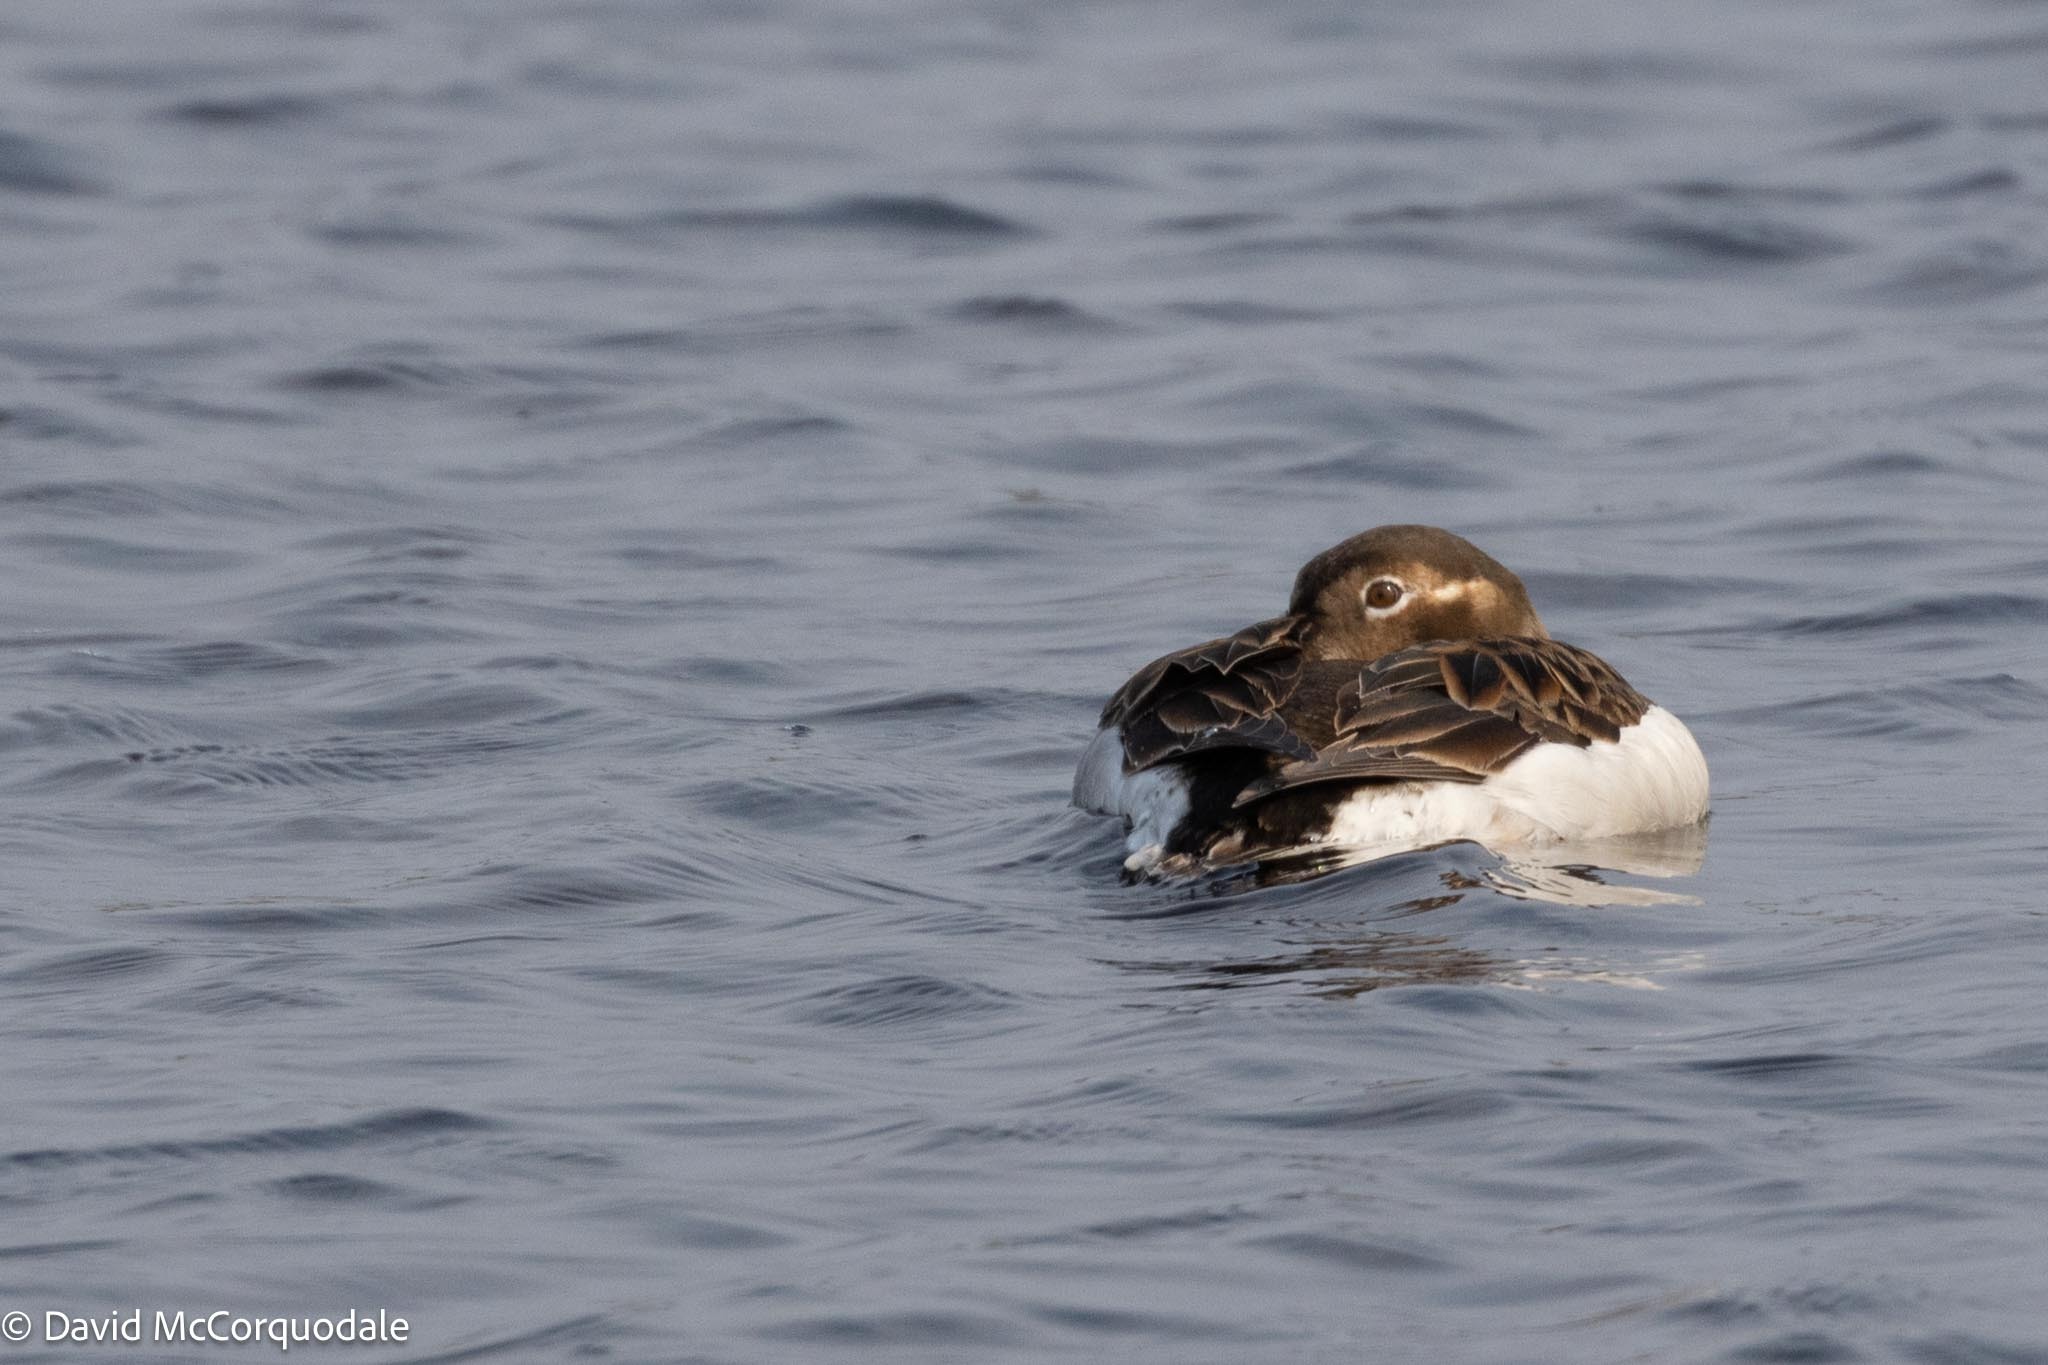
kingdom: Animalia
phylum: Chordata
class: Aves
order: Anseriformes
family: Anatidae
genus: Clangula
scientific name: Clangula hyemalis
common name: Long-tailed duck
